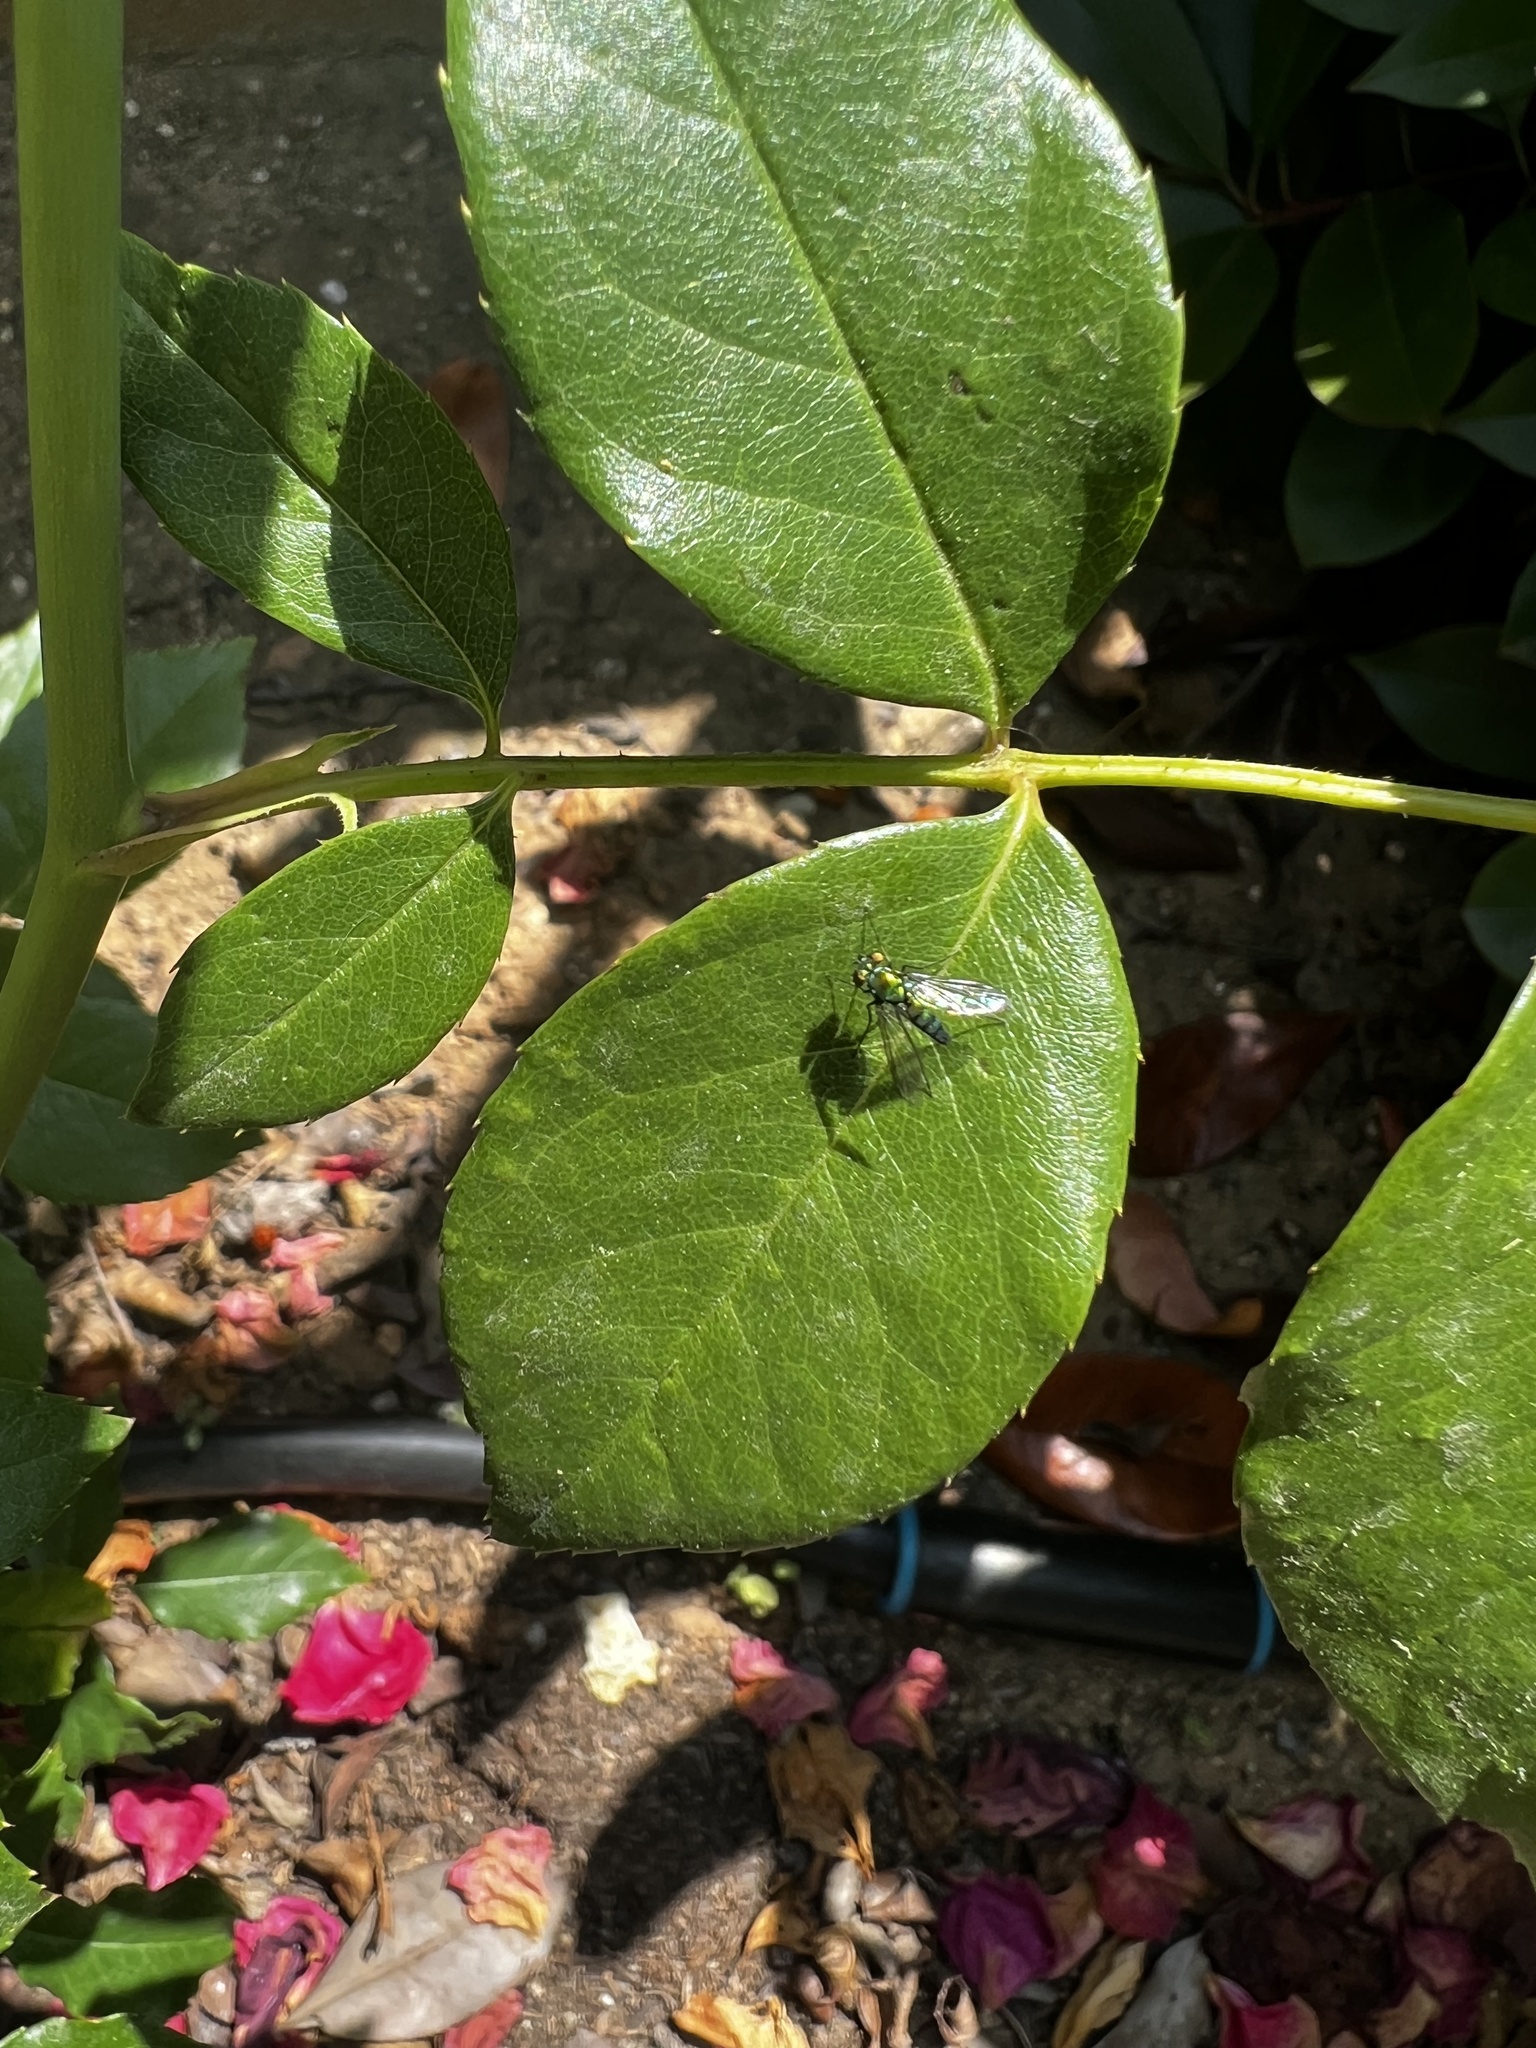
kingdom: Animalia
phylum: Arthropoda
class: Insecta
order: Diptera
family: Dolichopodidae
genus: Condylostylus
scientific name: Condylostylus longicornis
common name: Long-legged fly
